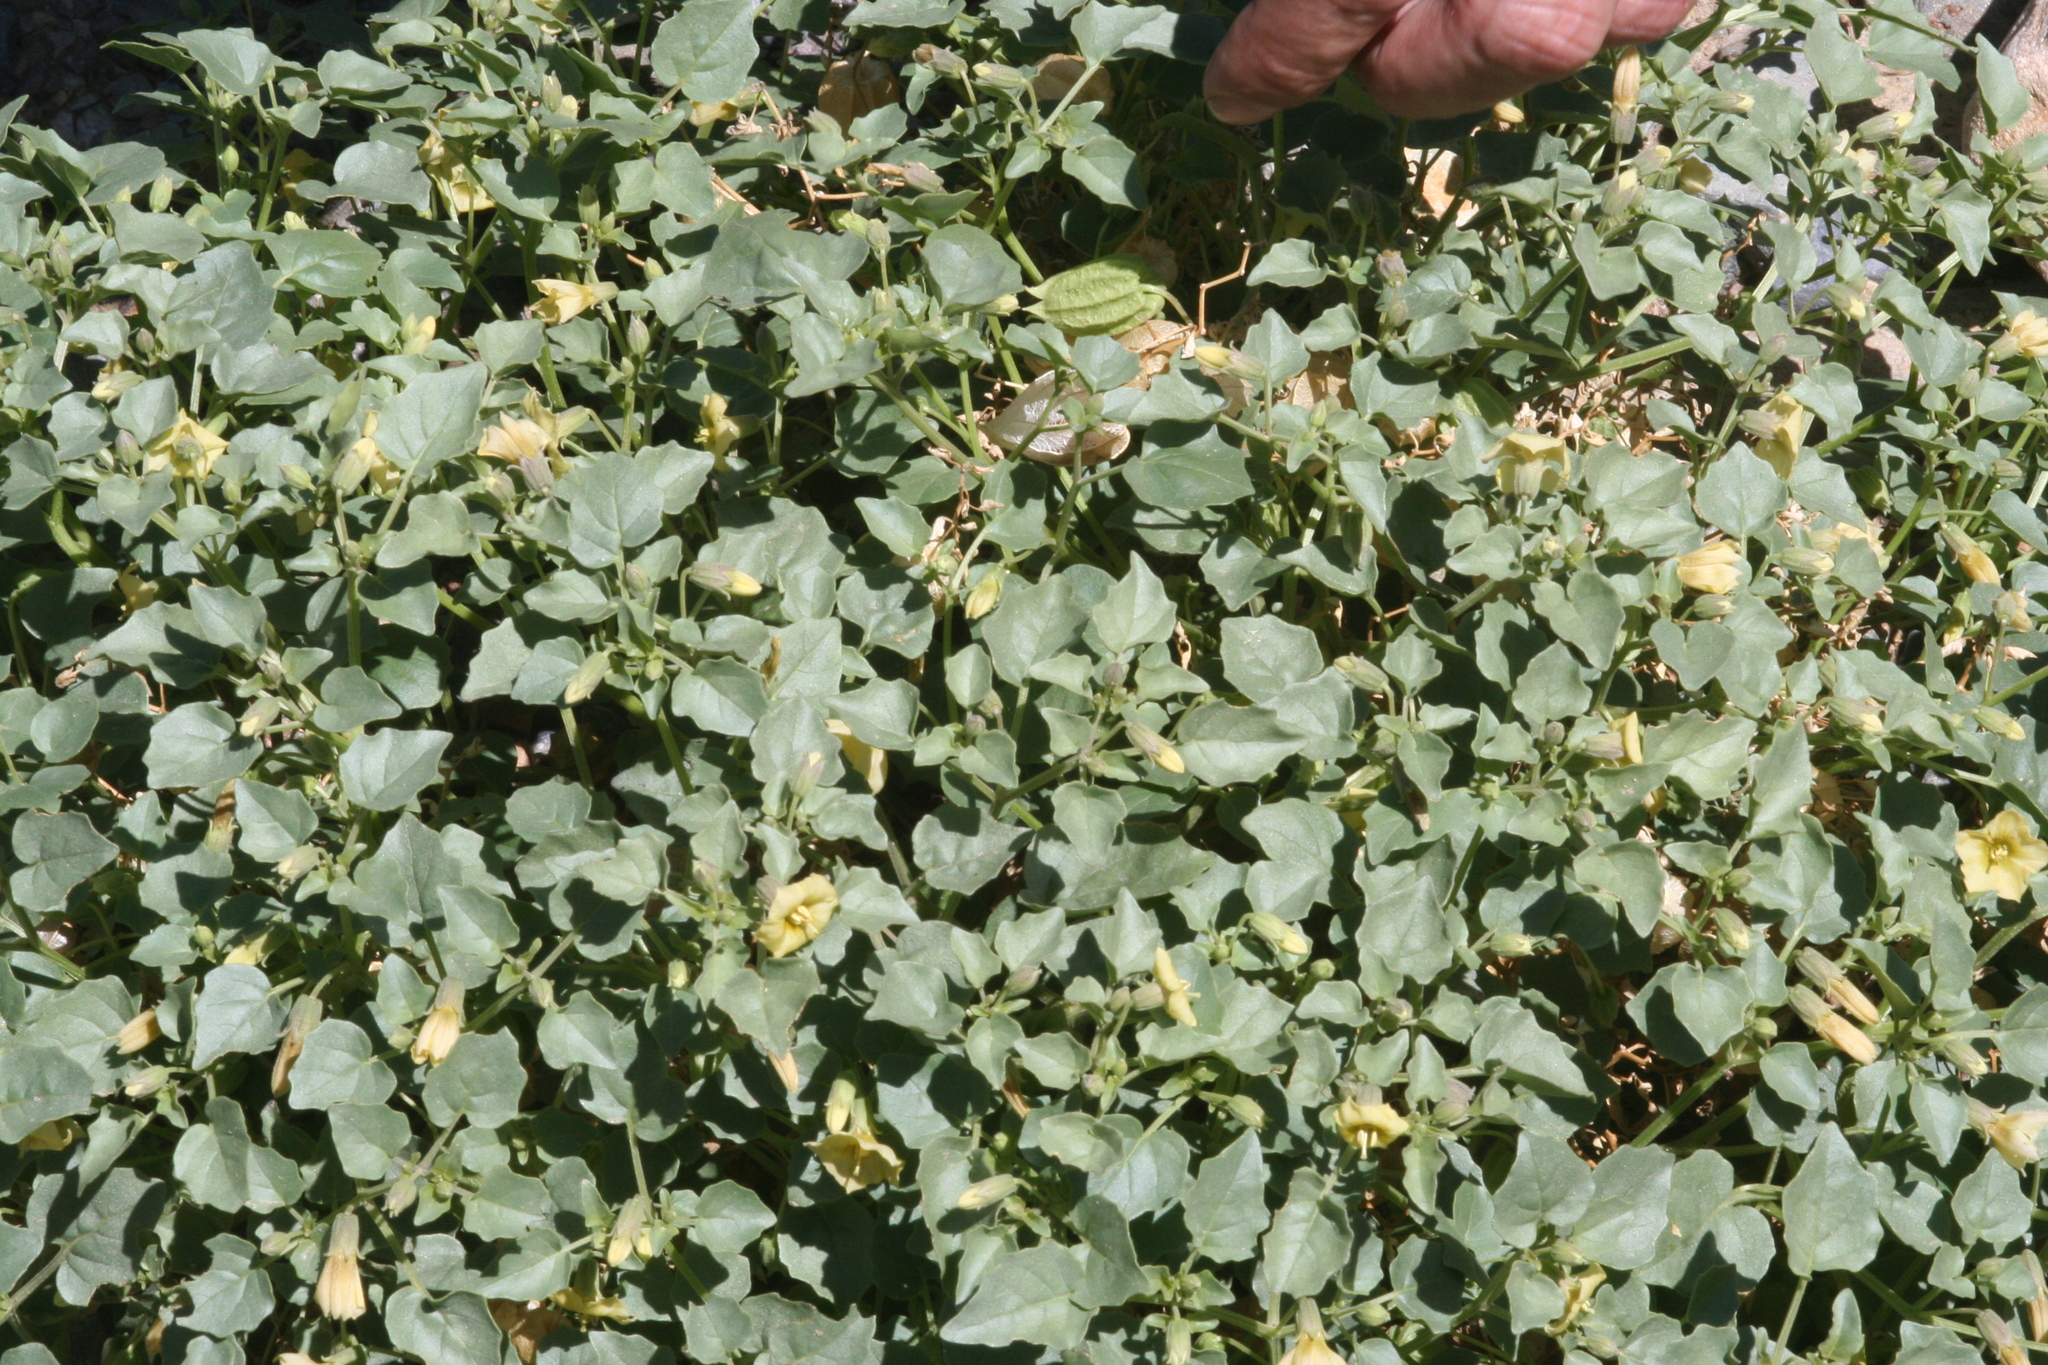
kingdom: Plantae
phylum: Tracheophyta
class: Magnoliopsida
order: Solanales
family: Solanaceae
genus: Physalis
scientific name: Physalis crassifolia
